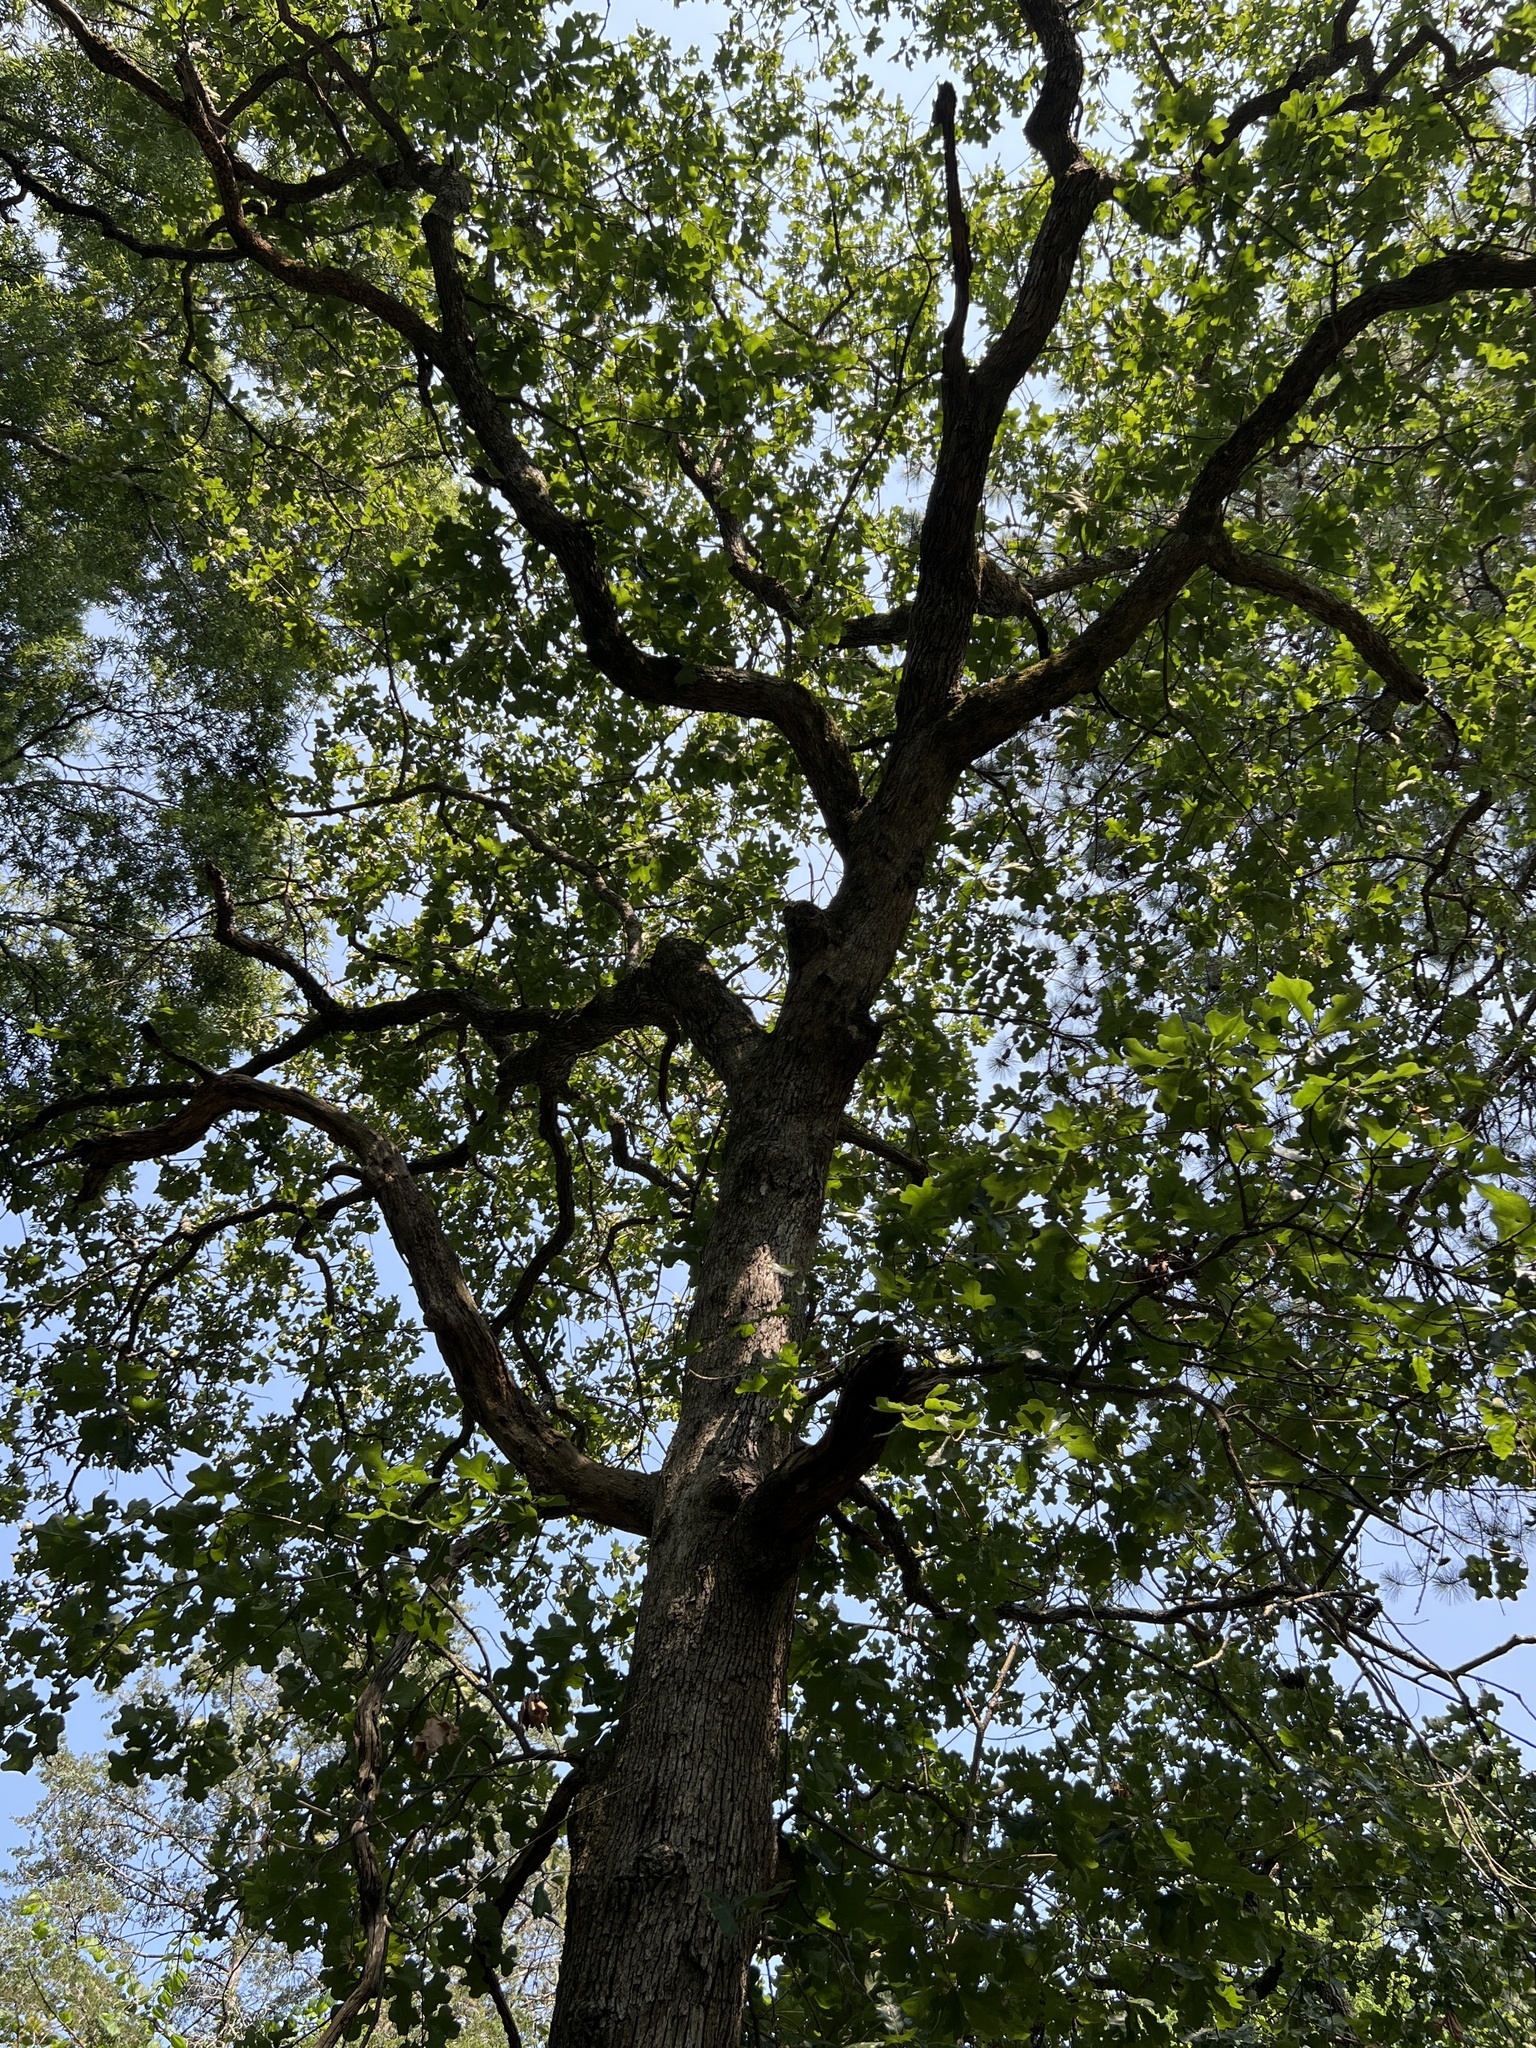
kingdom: Plantae
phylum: Tracheophyta
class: Magnoliopsida
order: Fagales
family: Fagaceae
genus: Quercus
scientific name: Quercus stellata
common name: Post oak
